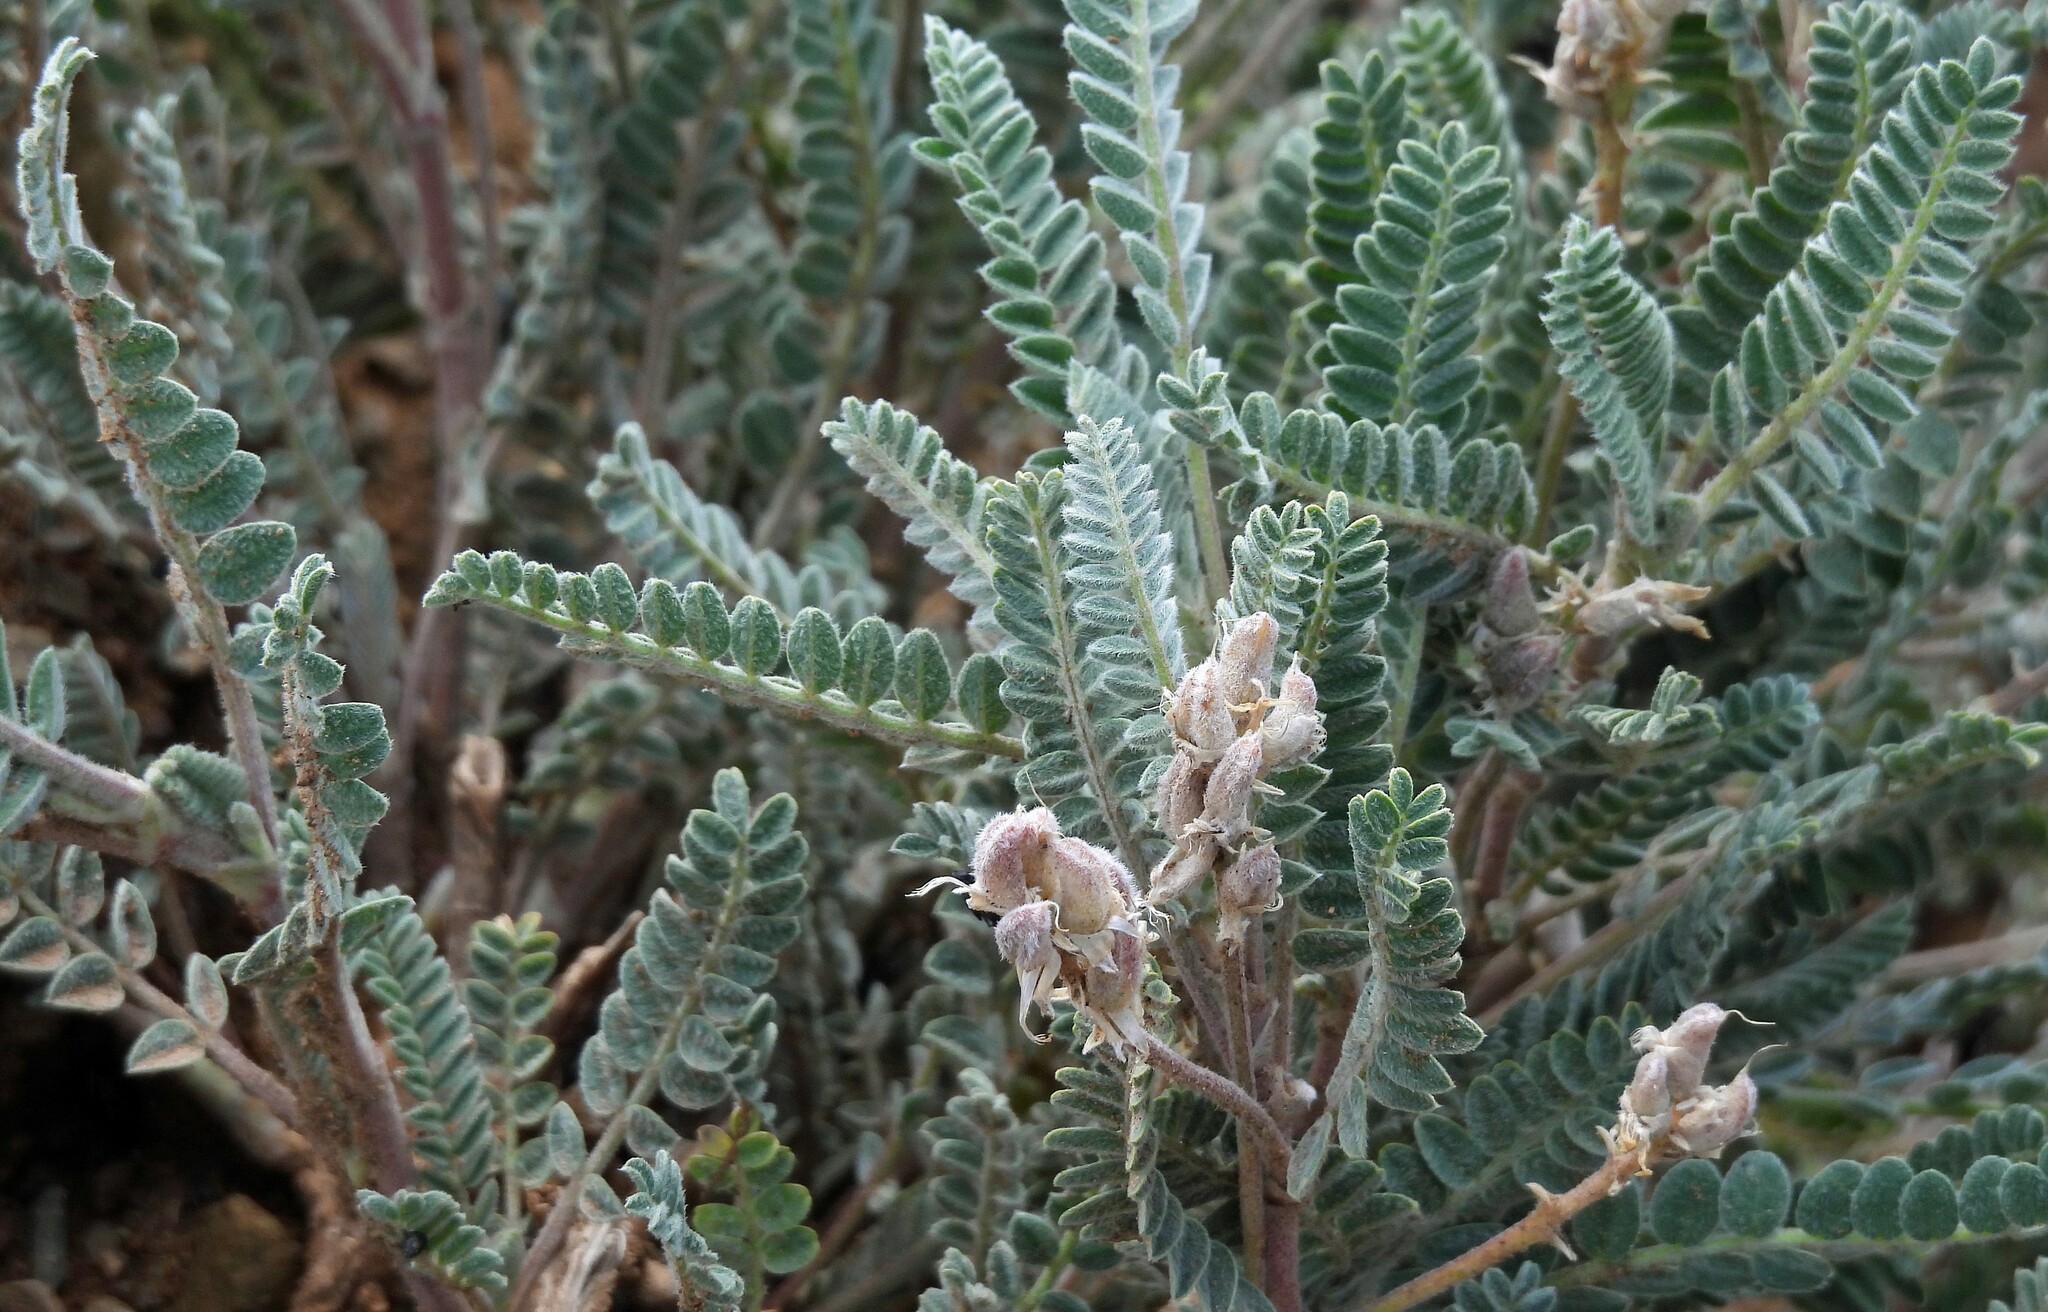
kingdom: Plantae
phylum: Tracheophyta
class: Magnoliopsida
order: Fabales
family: Fabaceae
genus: Astragalus
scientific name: Astragalus garbancillo
